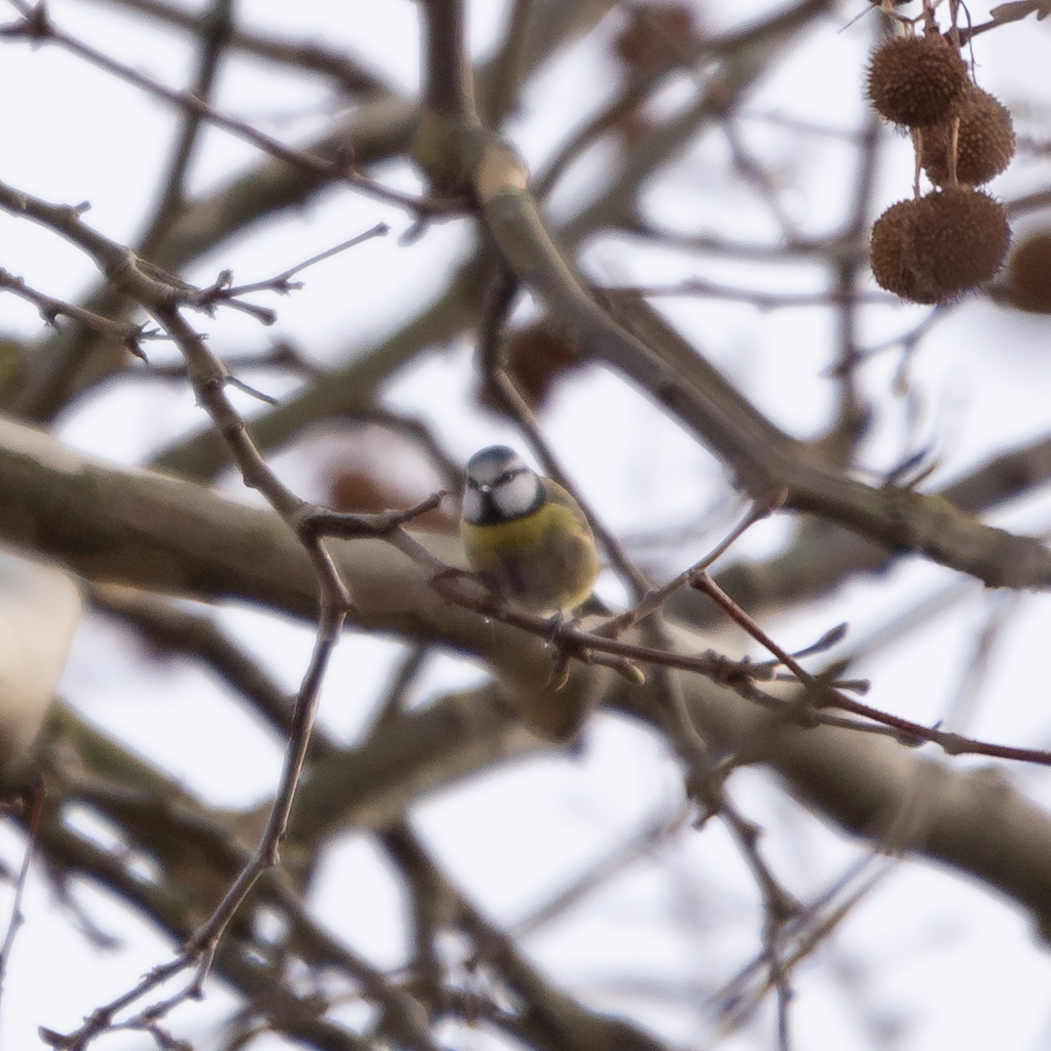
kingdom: Animalia
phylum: Chordata
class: Aves
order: Passeriformes
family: Paridae
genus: Cyanistes
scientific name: Cyanistes caeruleus
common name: Eurasian blue tit
